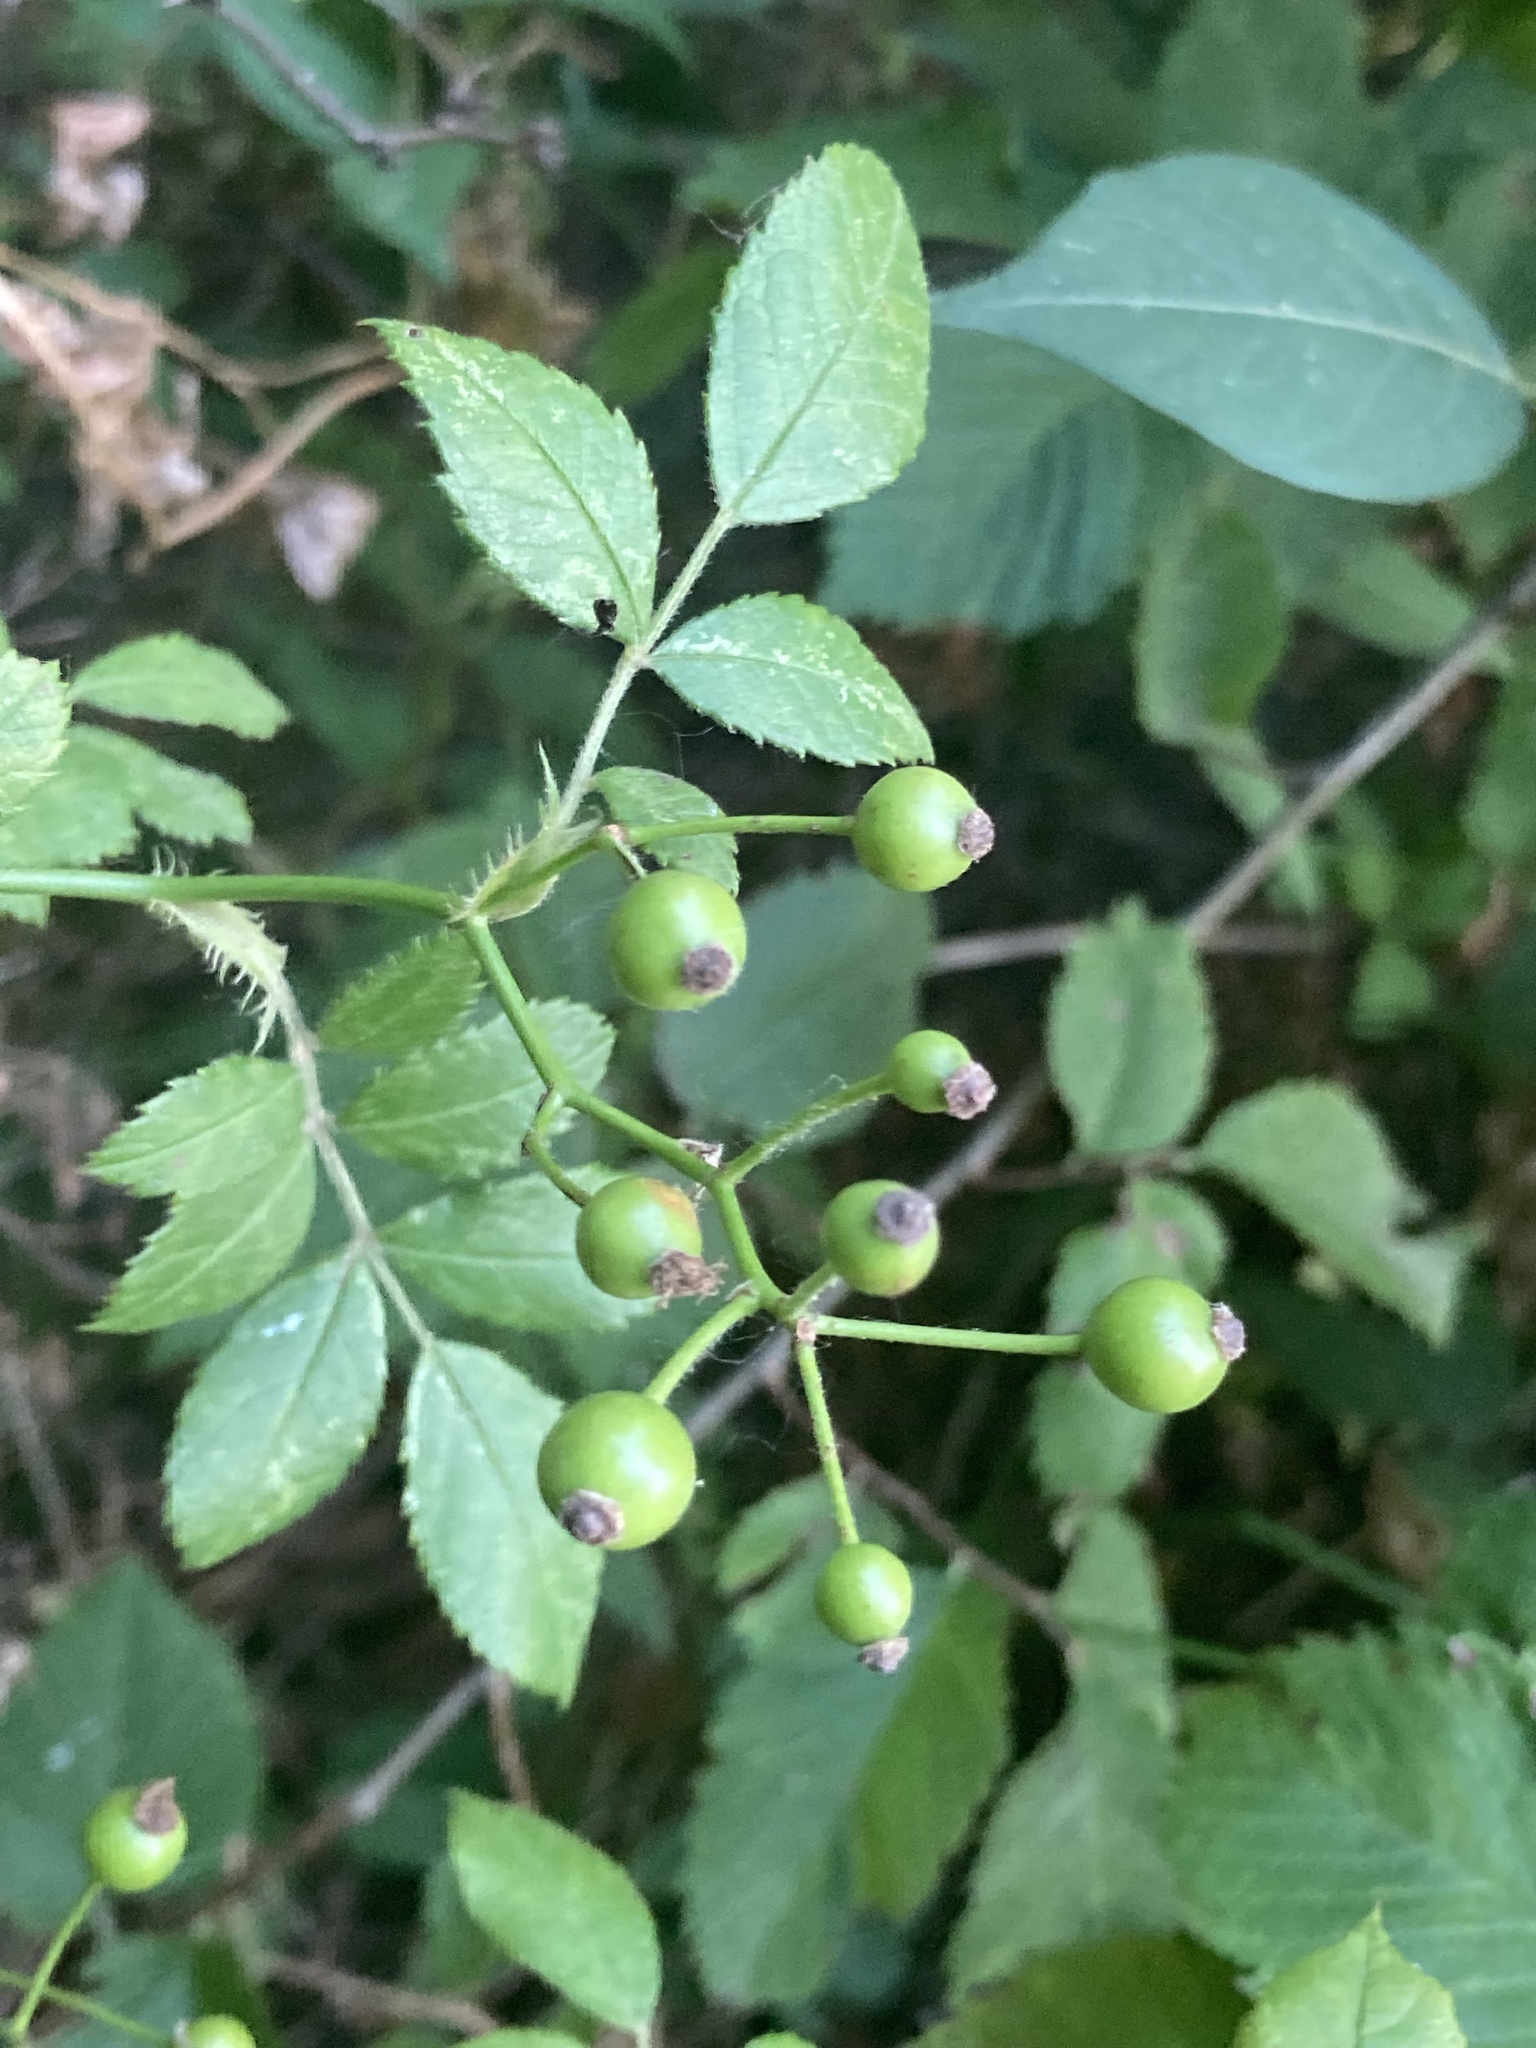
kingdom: Plantae
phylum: Tracheophyta
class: Magnoliopsida
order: Rosales
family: Rosaceae
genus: Rosa
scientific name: Rosa multiflora
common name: Multiflora rose
